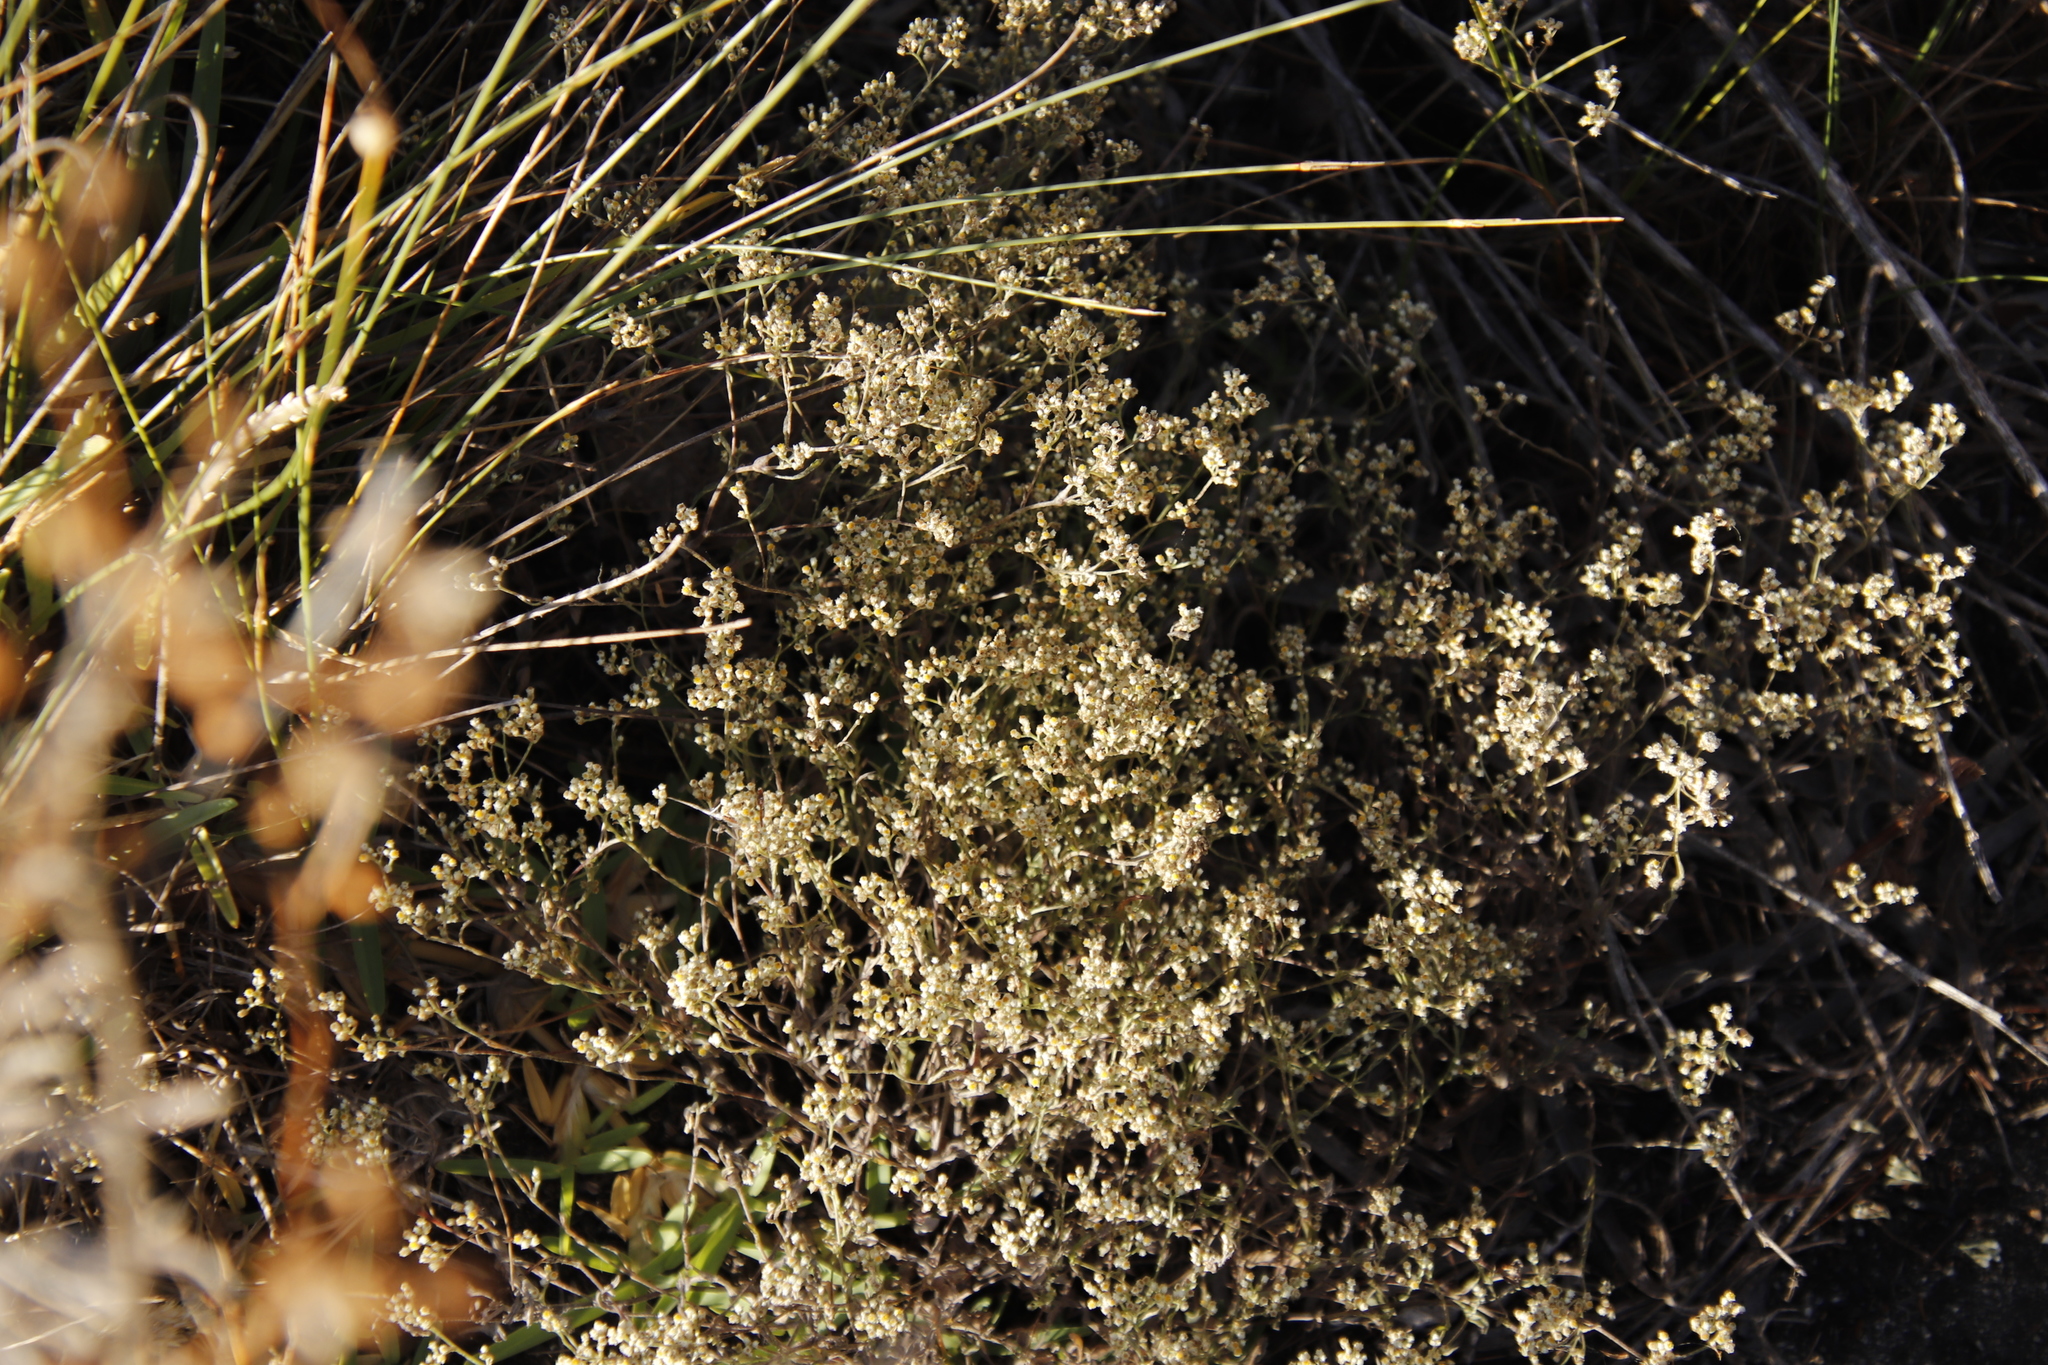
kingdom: Plantae
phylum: Tracheophyta
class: Magnoliopsida
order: Asterales
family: Asteraceae
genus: Helichrysum
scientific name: Helichrysum indicum
